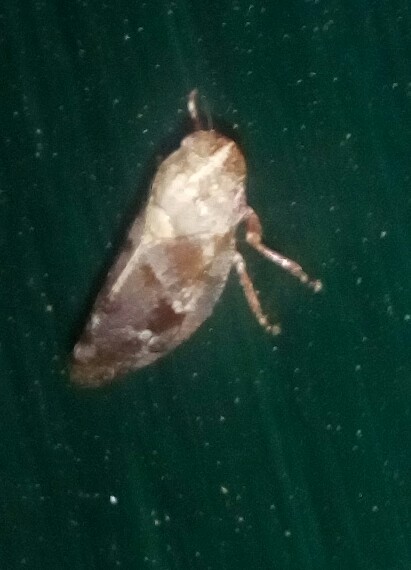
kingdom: Animalia
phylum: Arthropoda
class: Insecta
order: Hemiptera
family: Aphrophoridae
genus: Aphrophora
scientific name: Aphrophora saratogensis
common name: Saratoga spittlebug
